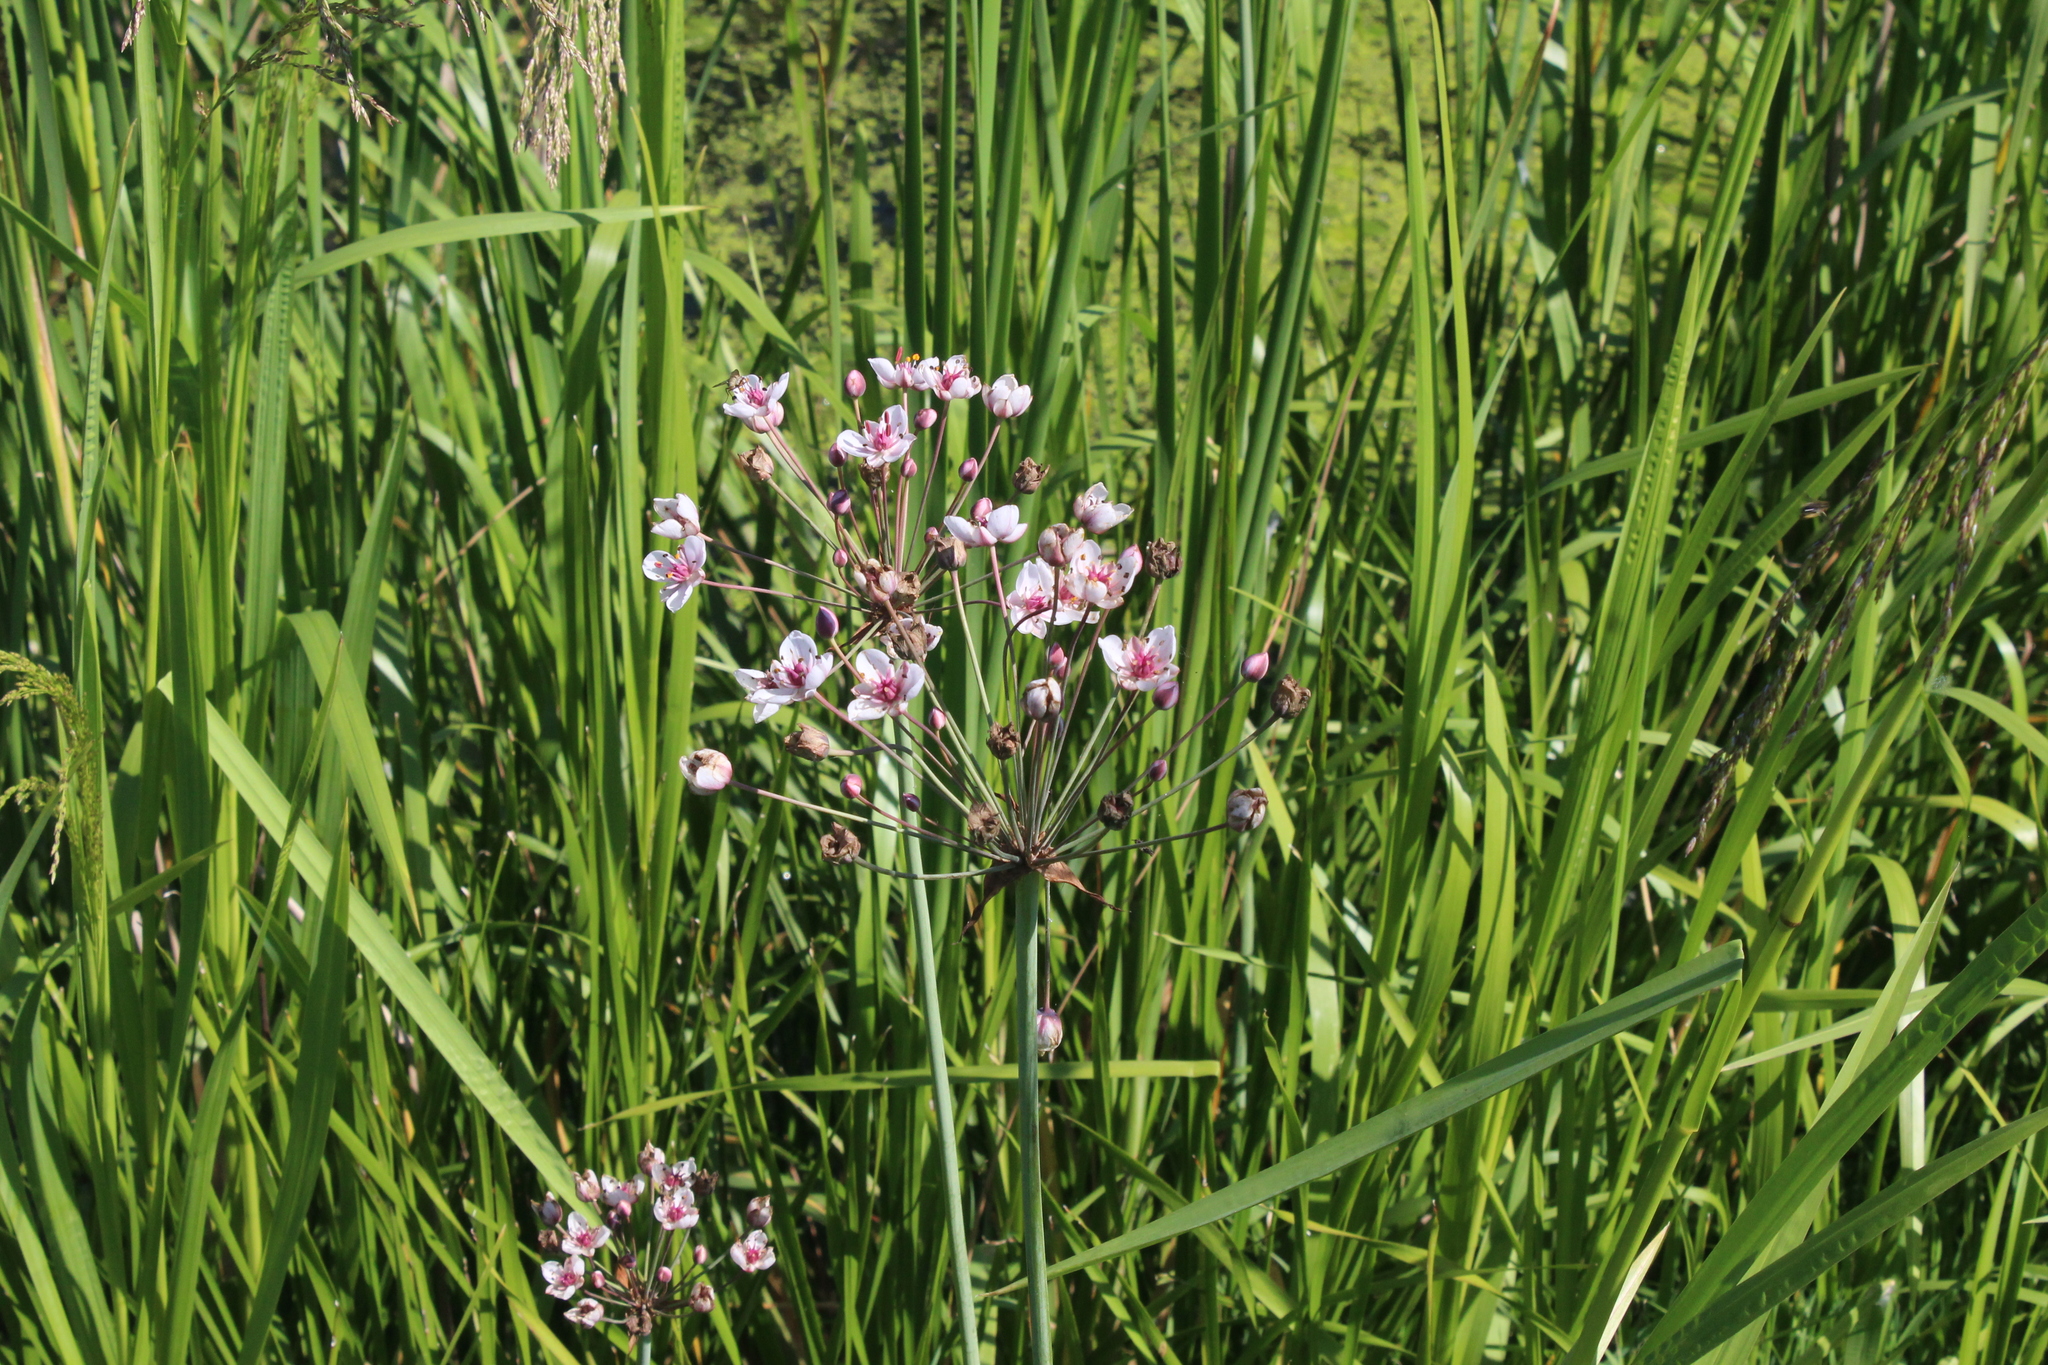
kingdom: Plantae
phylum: Tracheophyta
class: Liliopsida
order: Alismatales
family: Butomaceae
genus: Butomus
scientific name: Butomus umbellatus
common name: Flowering-rush
